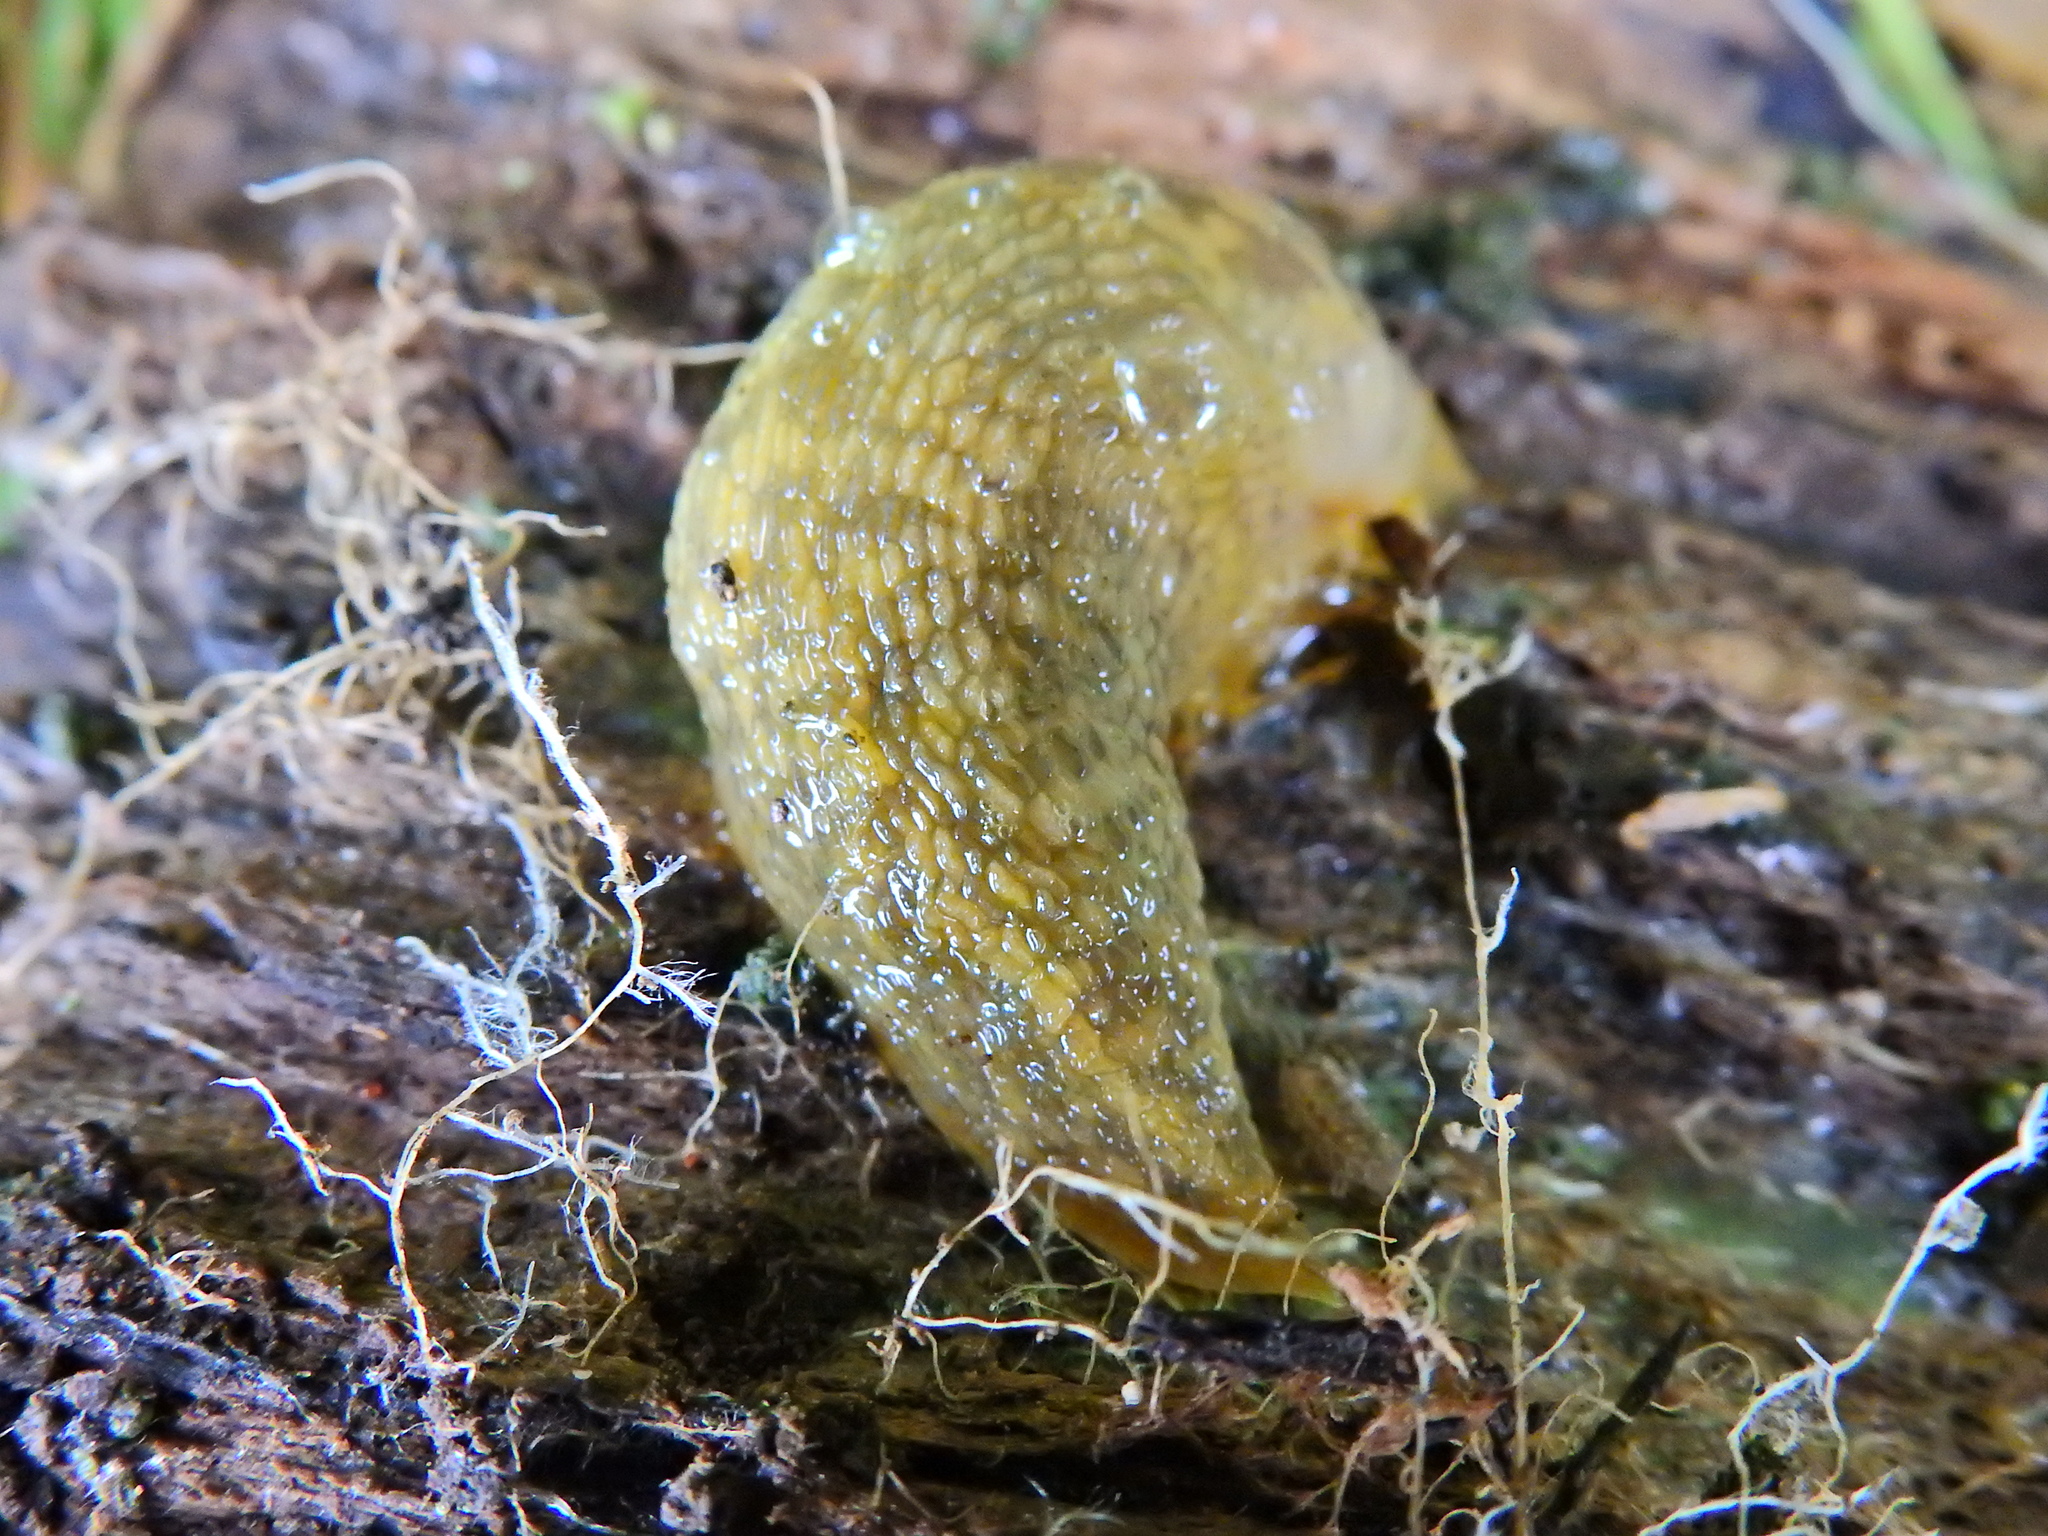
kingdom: Animalia
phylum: Mollusca
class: Gastropoda
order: Stylommatophora
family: Limacidae
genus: Limacus
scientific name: Limacus maculatus
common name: Irish yellow slug
